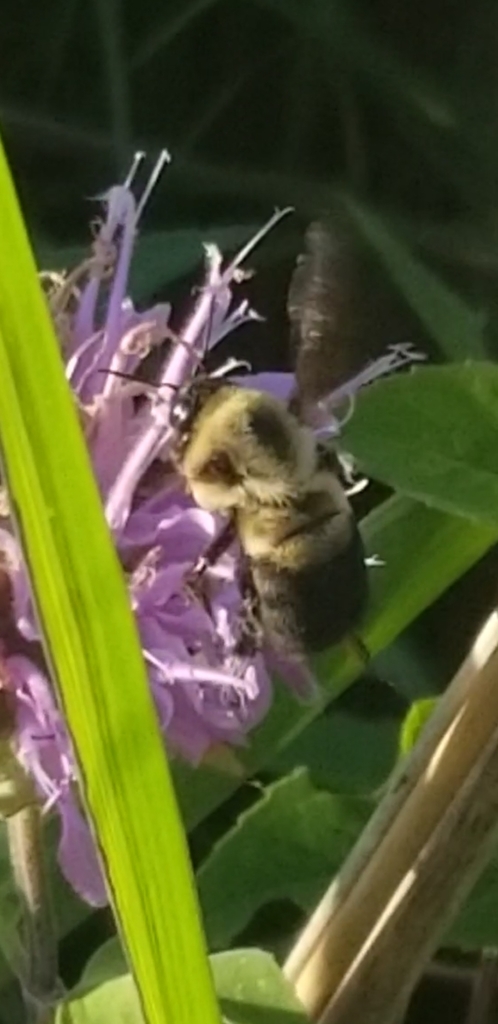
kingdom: Animalia
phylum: Arthropoda
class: Insecta
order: Hymenoptera
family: Apidae
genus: Bombus
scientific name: Bombus griseocollis
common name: Brown-belted bumble bee
